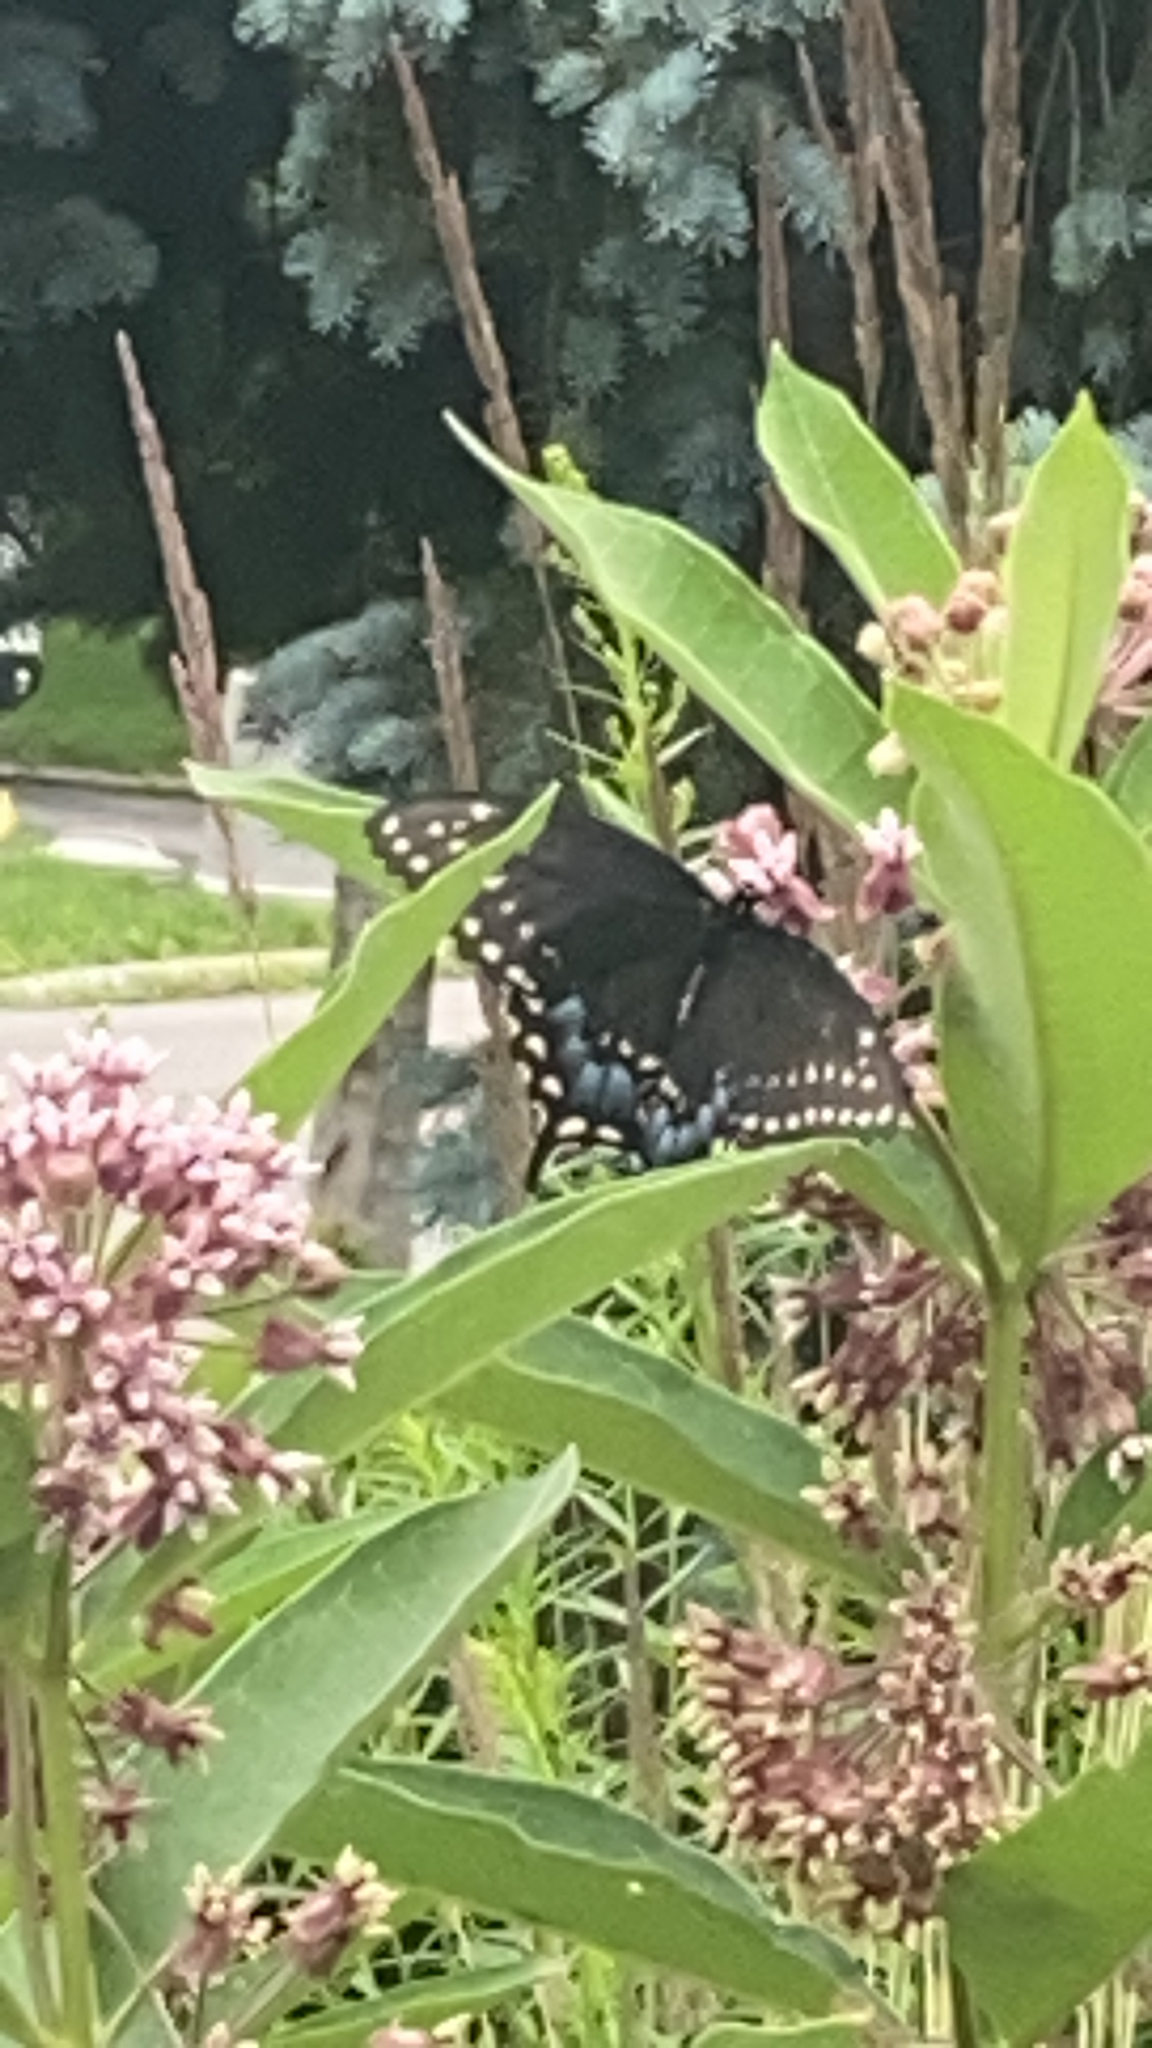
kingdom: Animalia
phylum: Arthropoda
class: Insecta
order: Lepidoptera
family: Papilionidae
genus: Papilio
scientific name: Papilio polyxenes
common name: Black swallowtail
